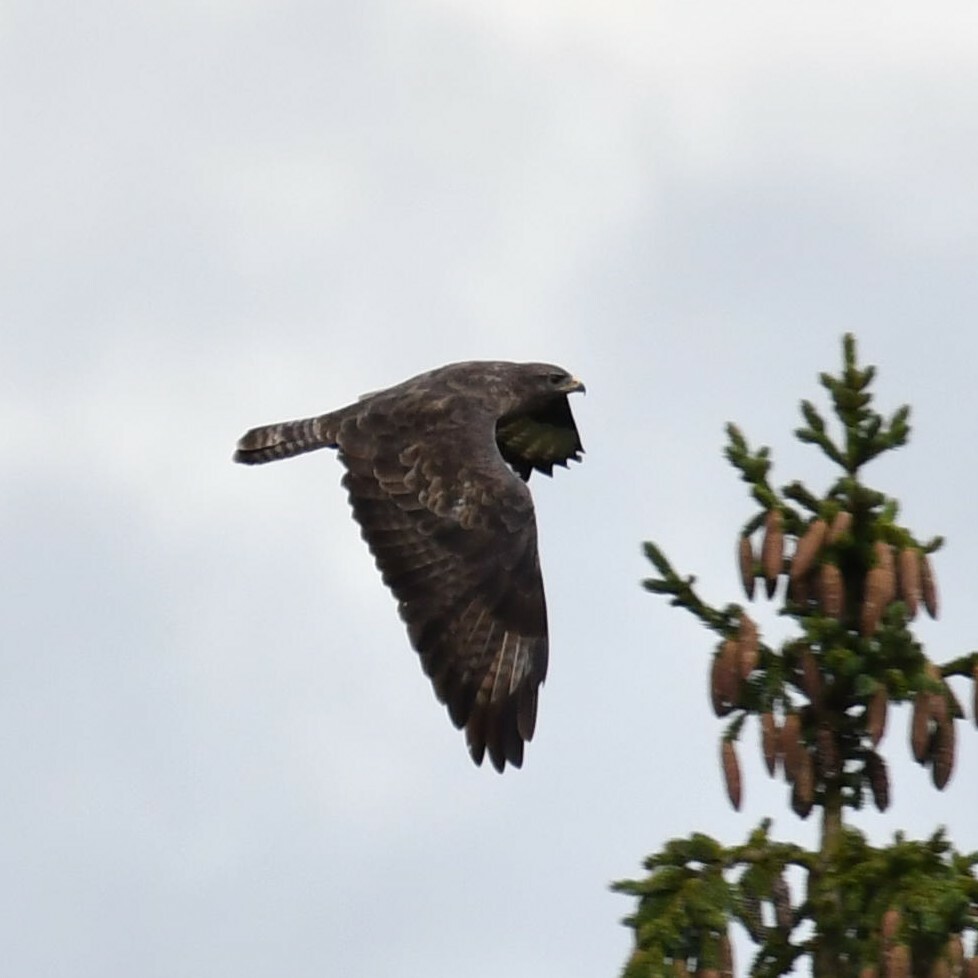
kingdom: Animalia
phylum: Chordata
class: Aves
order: Accipitriformes
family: Accipitridae
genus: Buteo
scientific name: Buteo buteo
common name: Common buzzard
